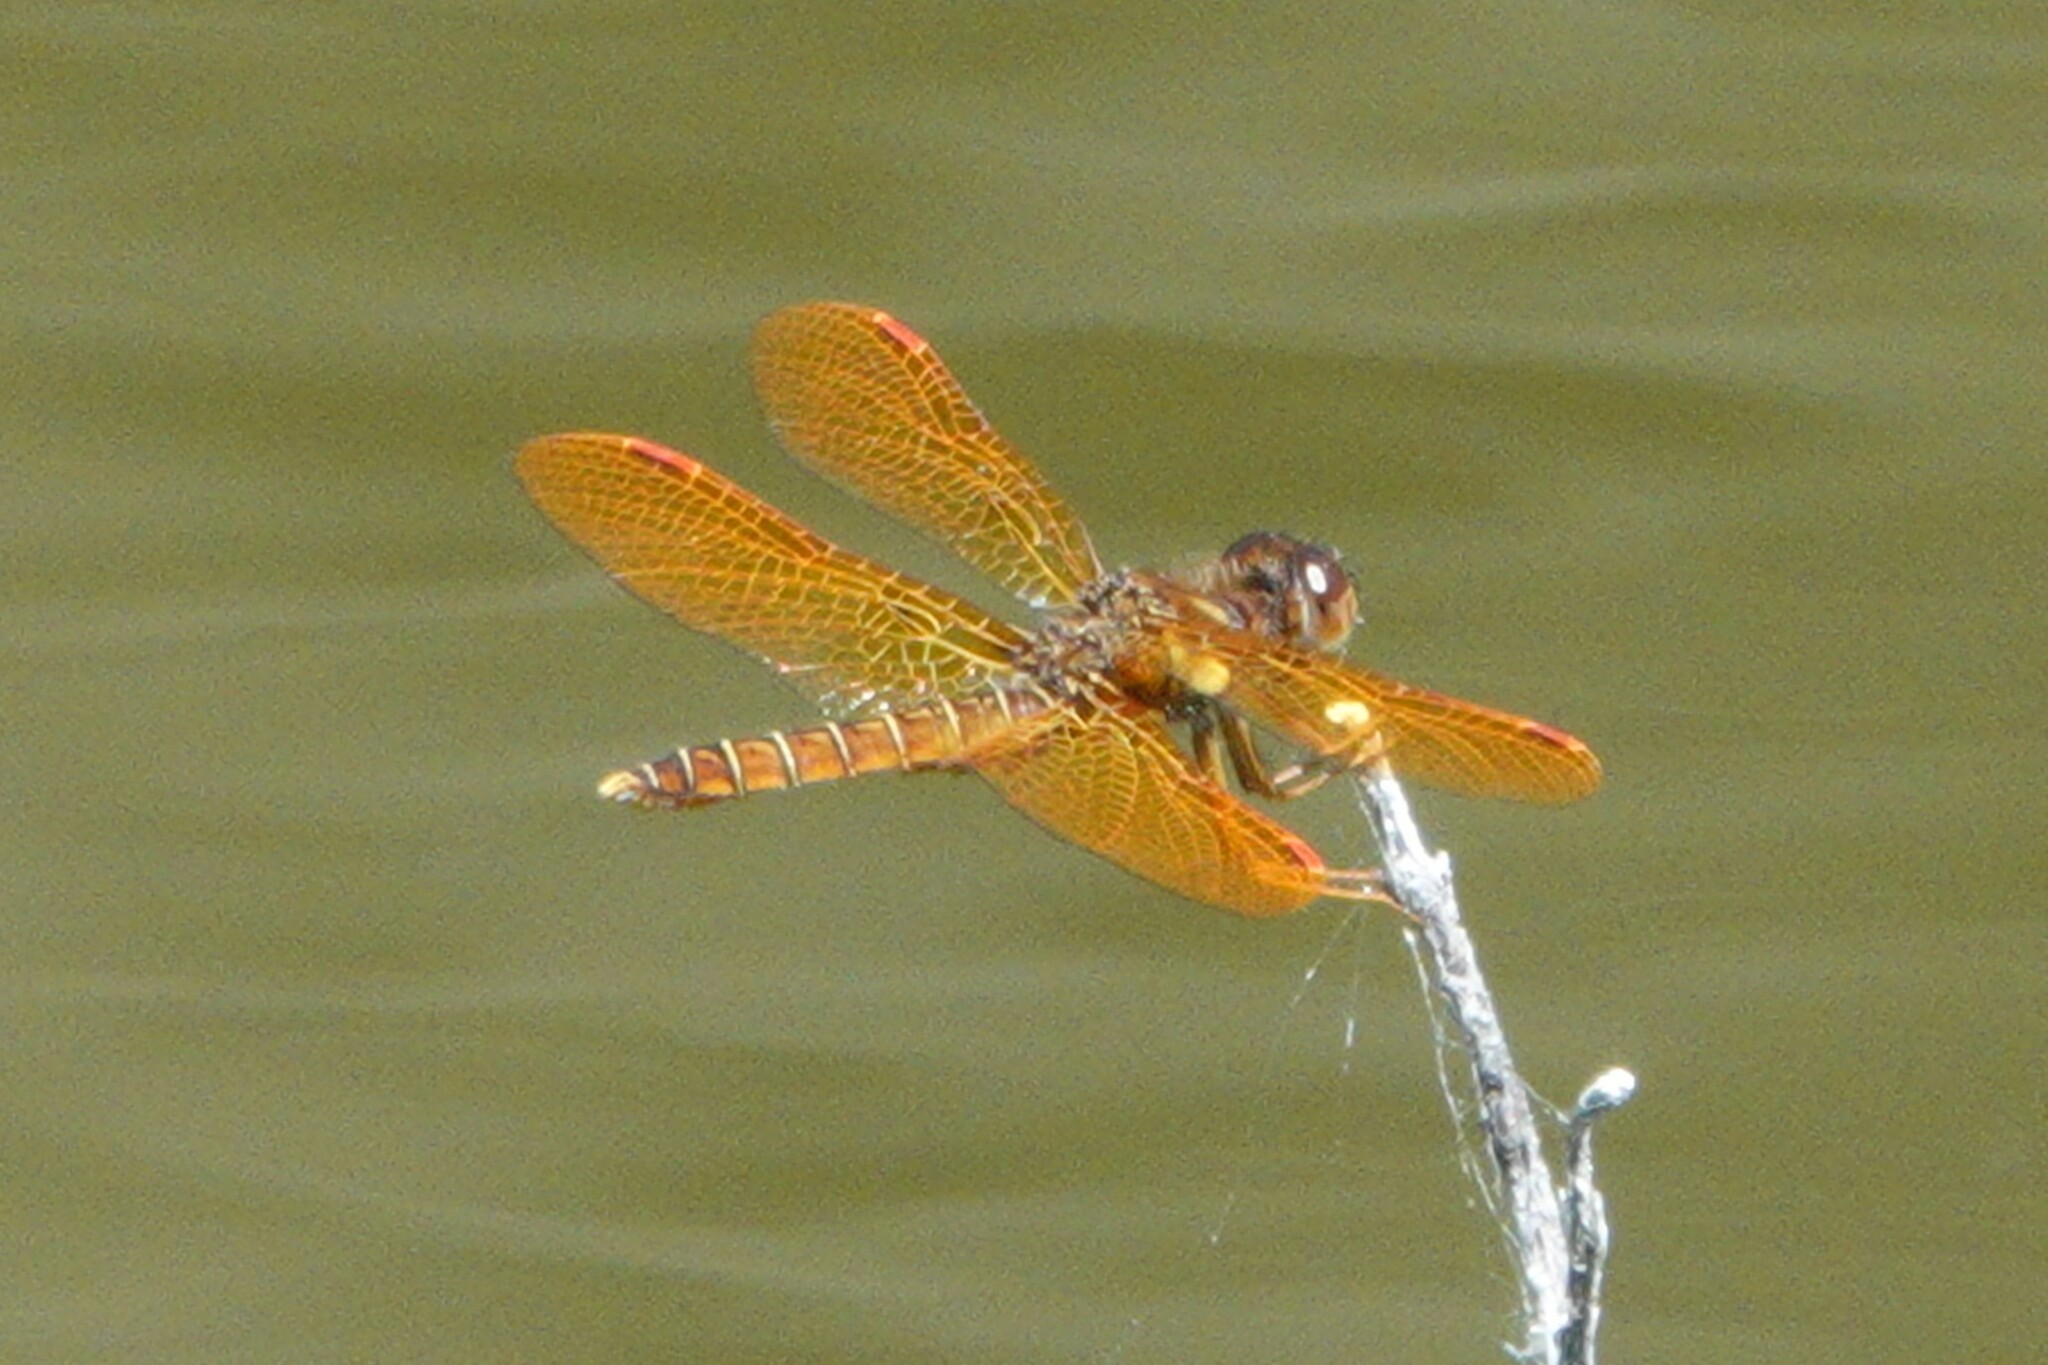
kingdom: Animalia
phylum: Arthropoda
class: Insecta
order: Odonata
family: Libellulidae
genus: Perithemis
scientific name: Perithemis tenera
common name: Eastern amberwing
